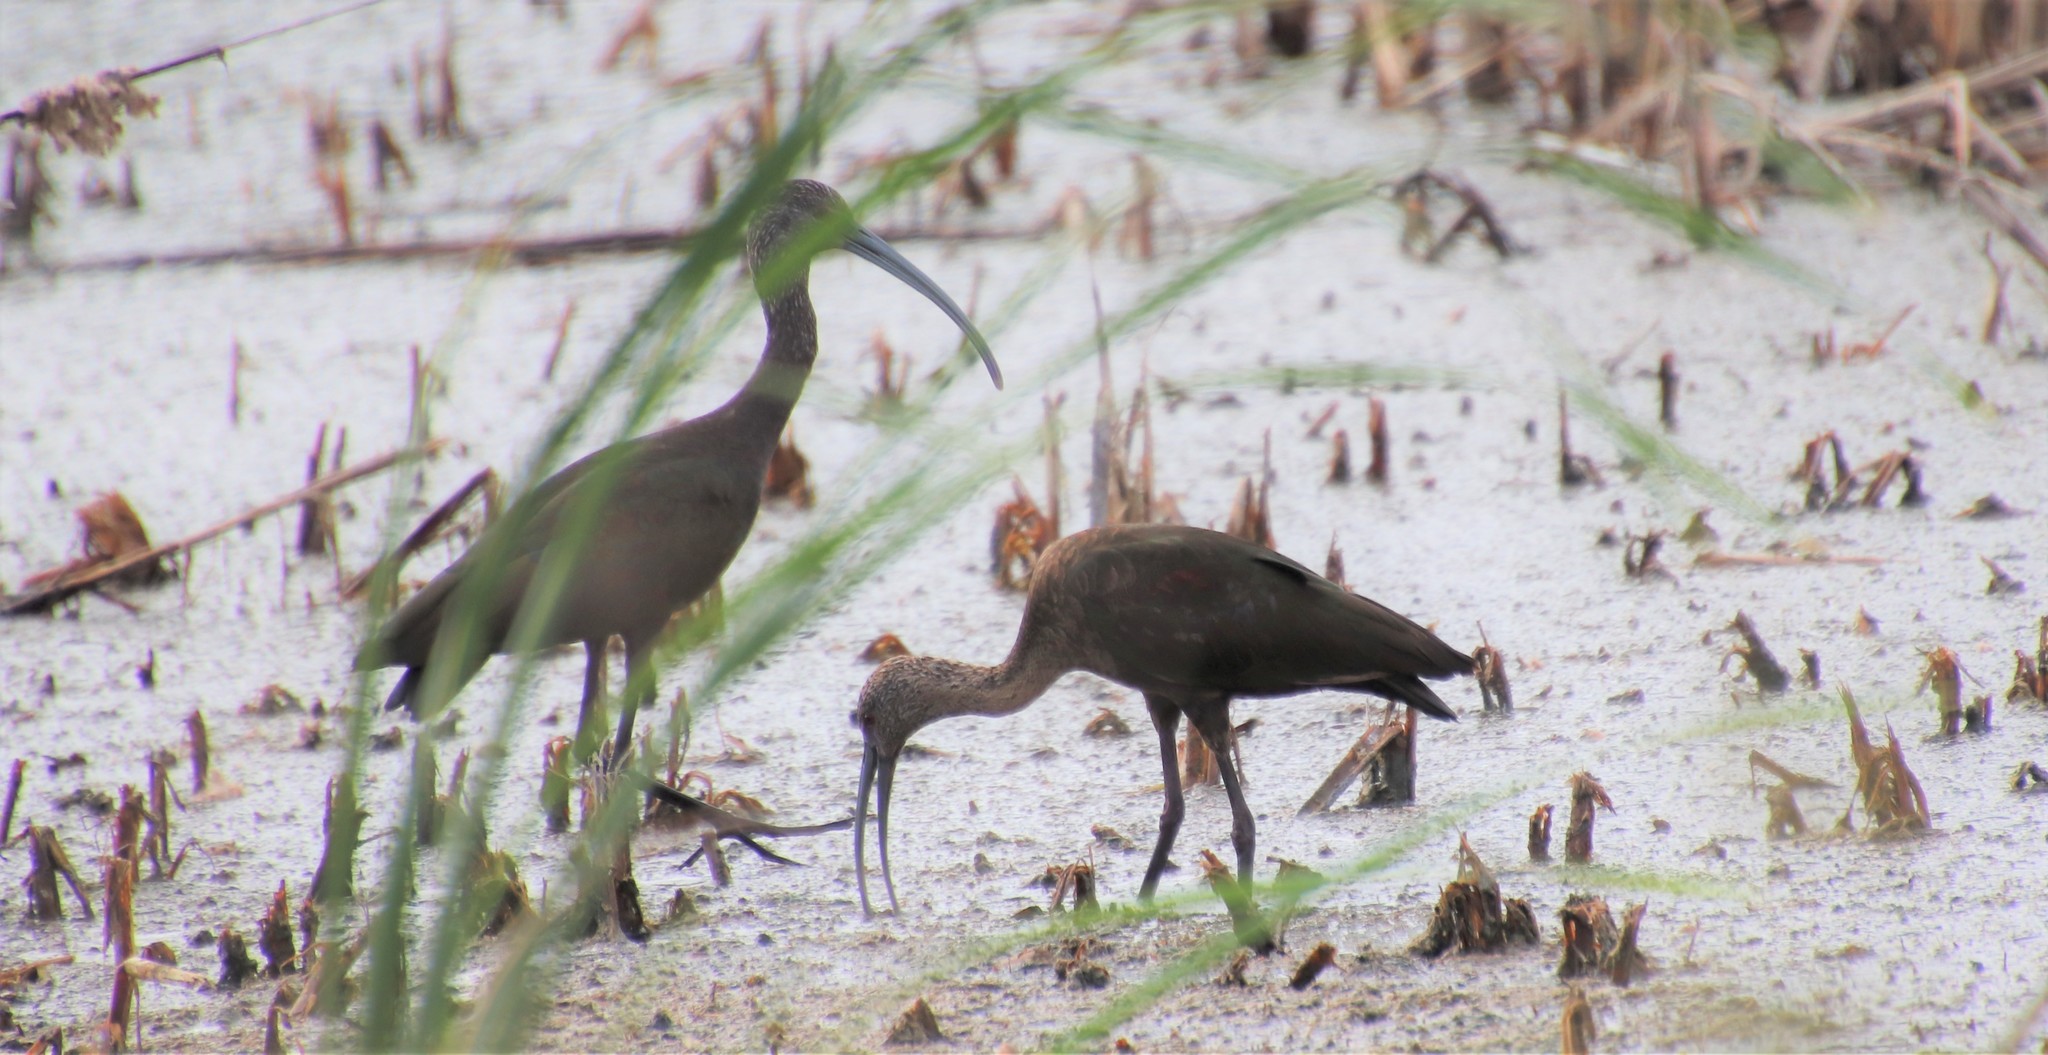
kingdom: Animalia
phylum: Chordata
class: Aves
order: Pelecaniformes
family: Threskiornithidae
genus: Plegadis
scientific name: Plegadis chihi
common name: White-faced ibis
